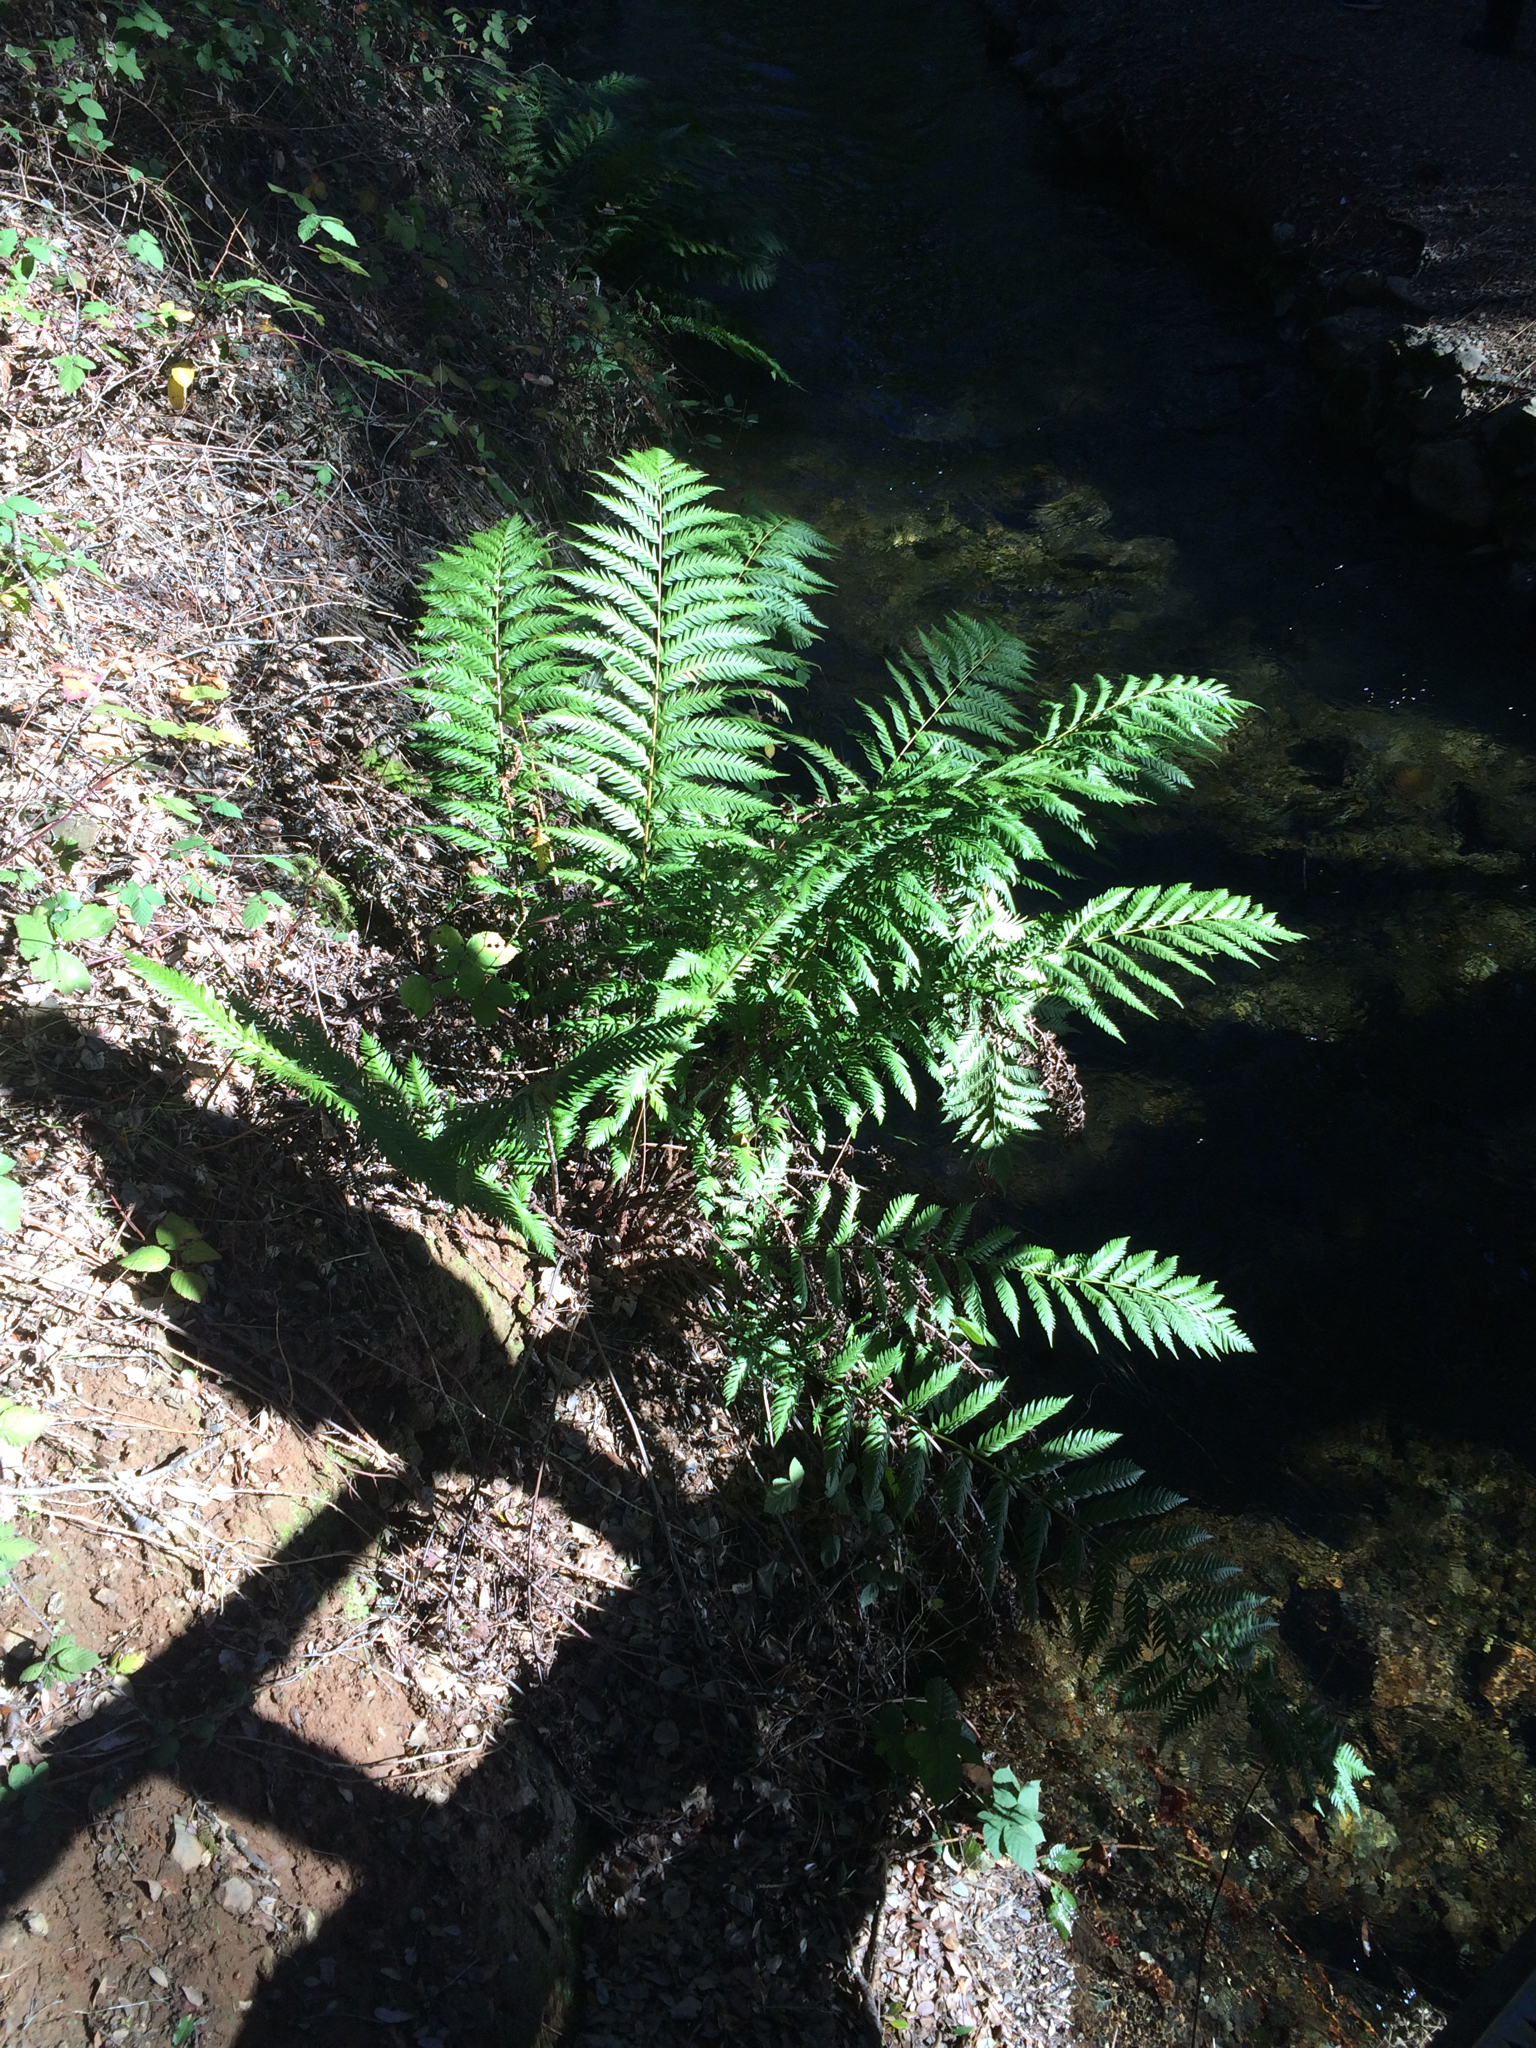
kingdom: Plantae
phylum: Tracheophyta
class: Polypodiopsida
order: Polypodiales
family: Blechnaceae
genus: Woodwardia
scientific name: Woodwardia fimbriata
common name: Giant chain fern
